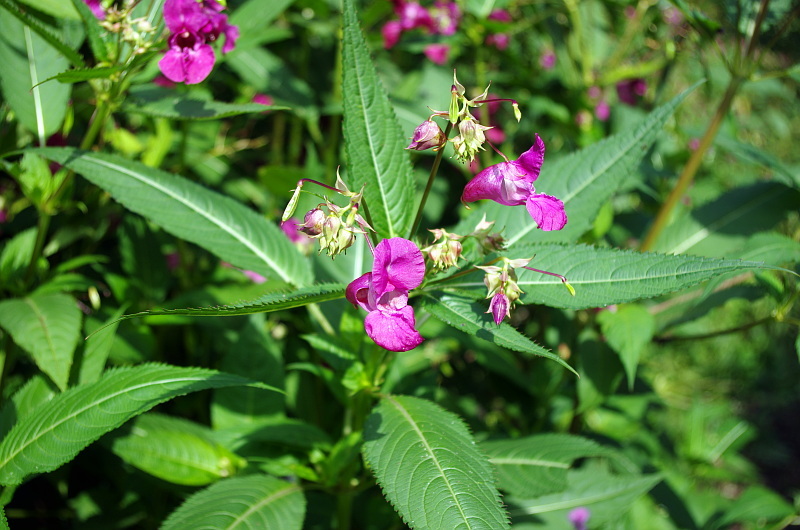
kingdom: Plantae
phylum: Tracheophyta
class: Magnoliopsida
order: Ericales
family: Balsaminaceae
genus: Impatiens
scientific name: Impatiens glandulifera
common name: Himalayan balsam
